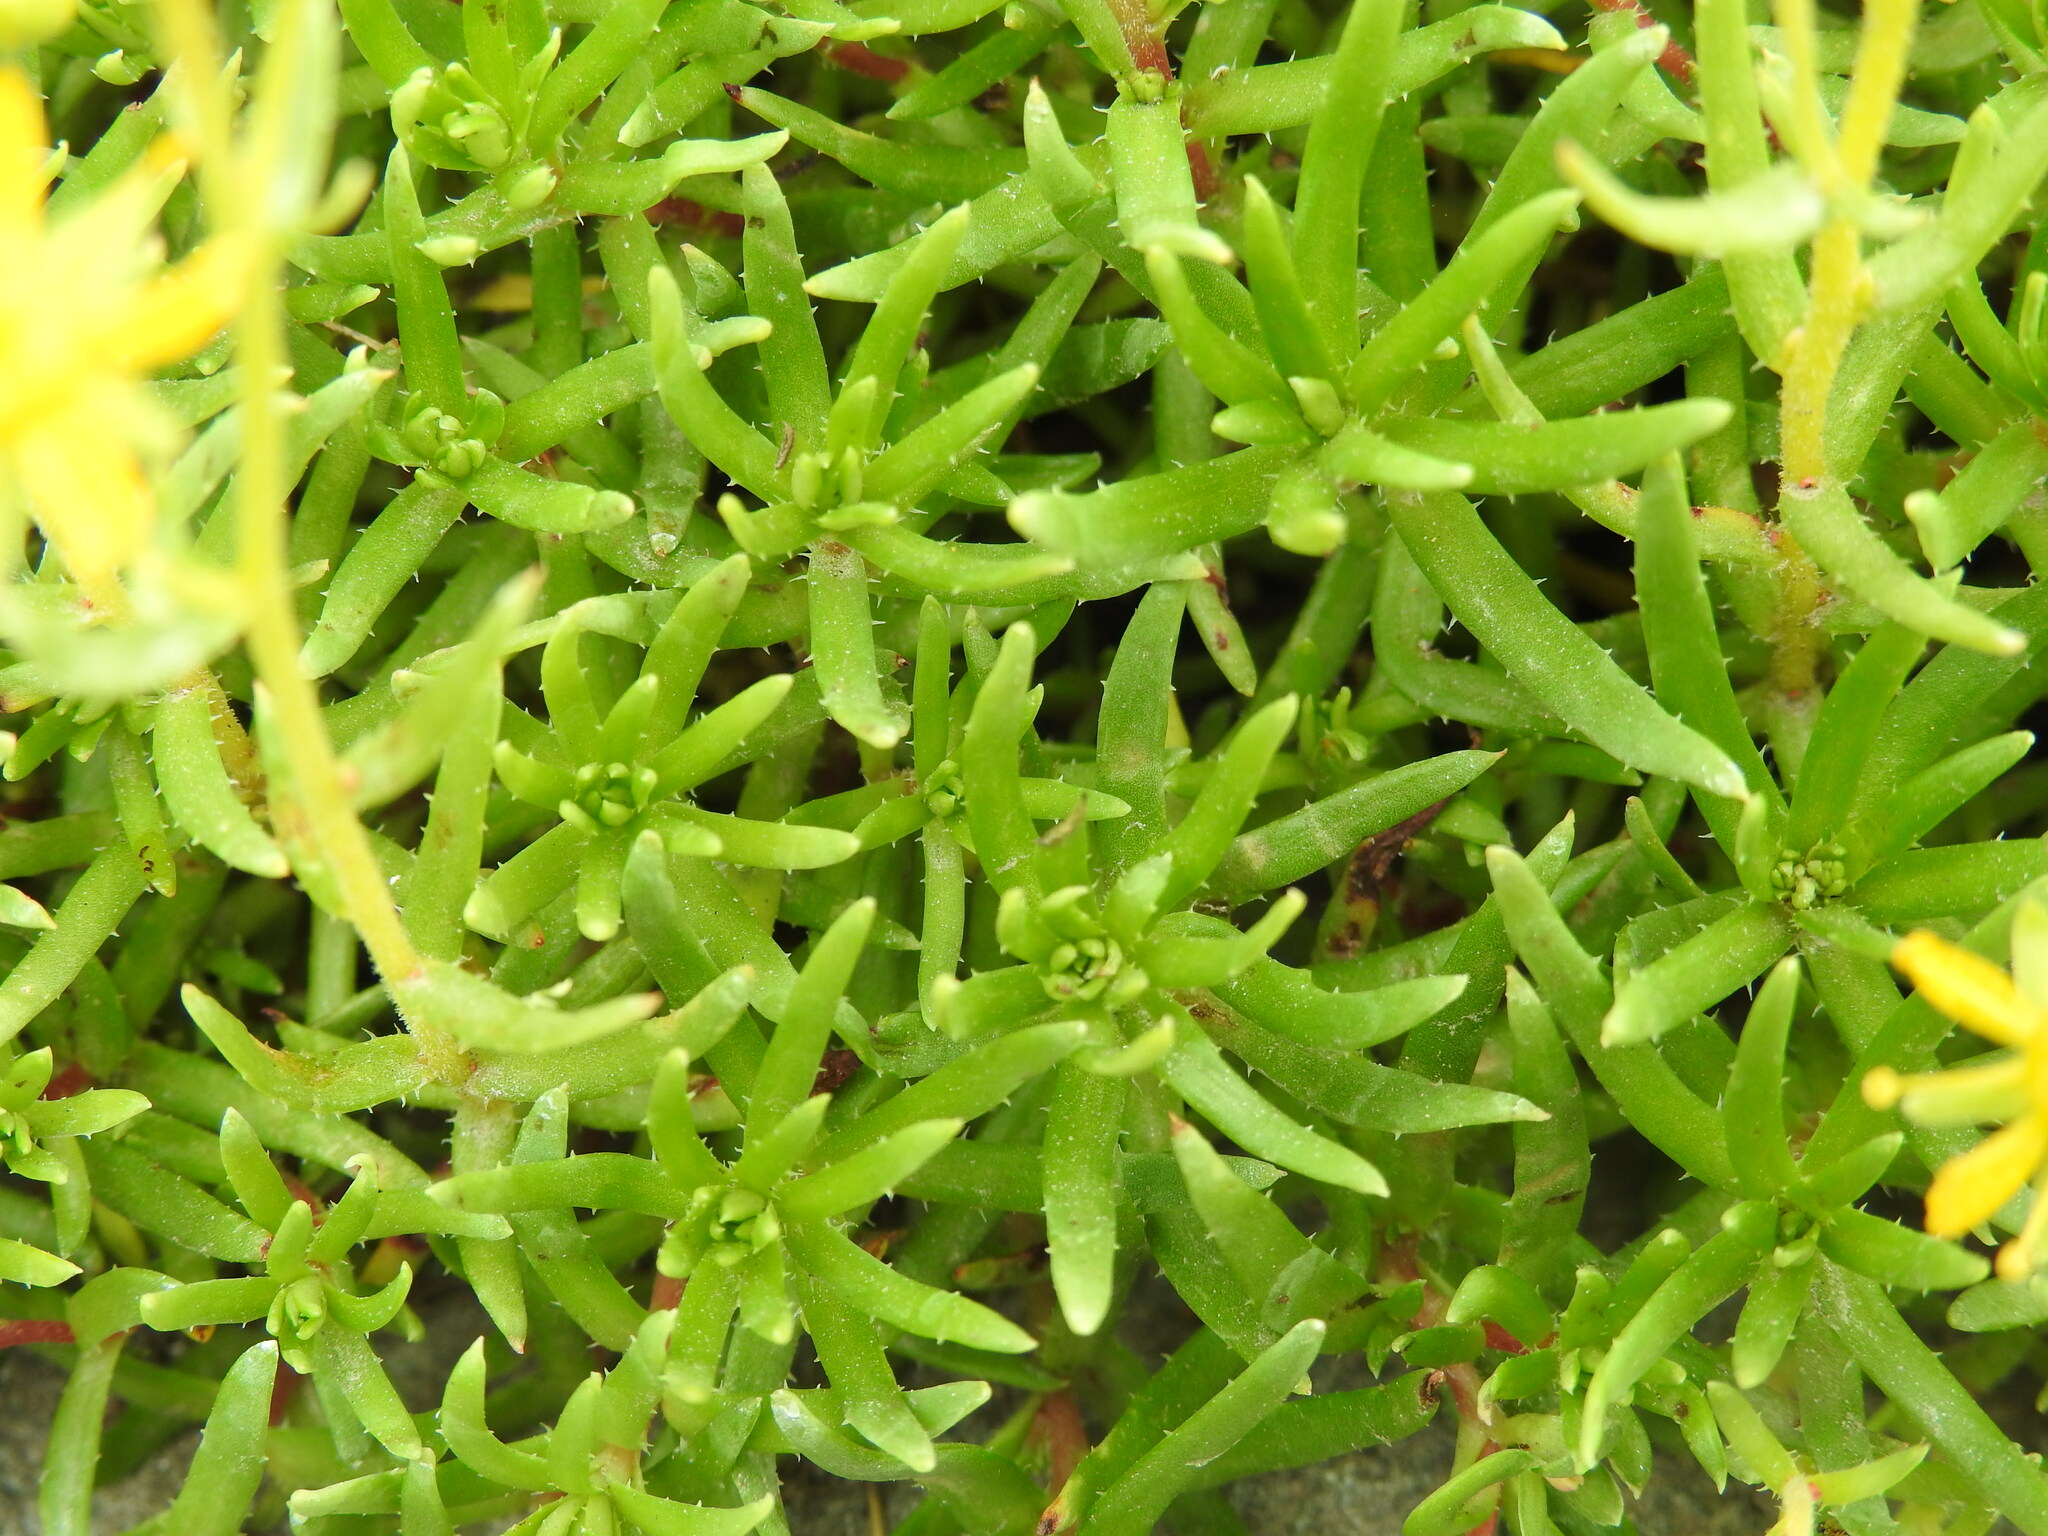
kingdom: Plantae
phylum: Tracheophyta
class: Magnoliopsida
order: Saxifragales
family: Saxifragaceae
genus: Saxifraga
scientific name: Saxifraga aizoides
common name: Yellow mountain saxifrage
